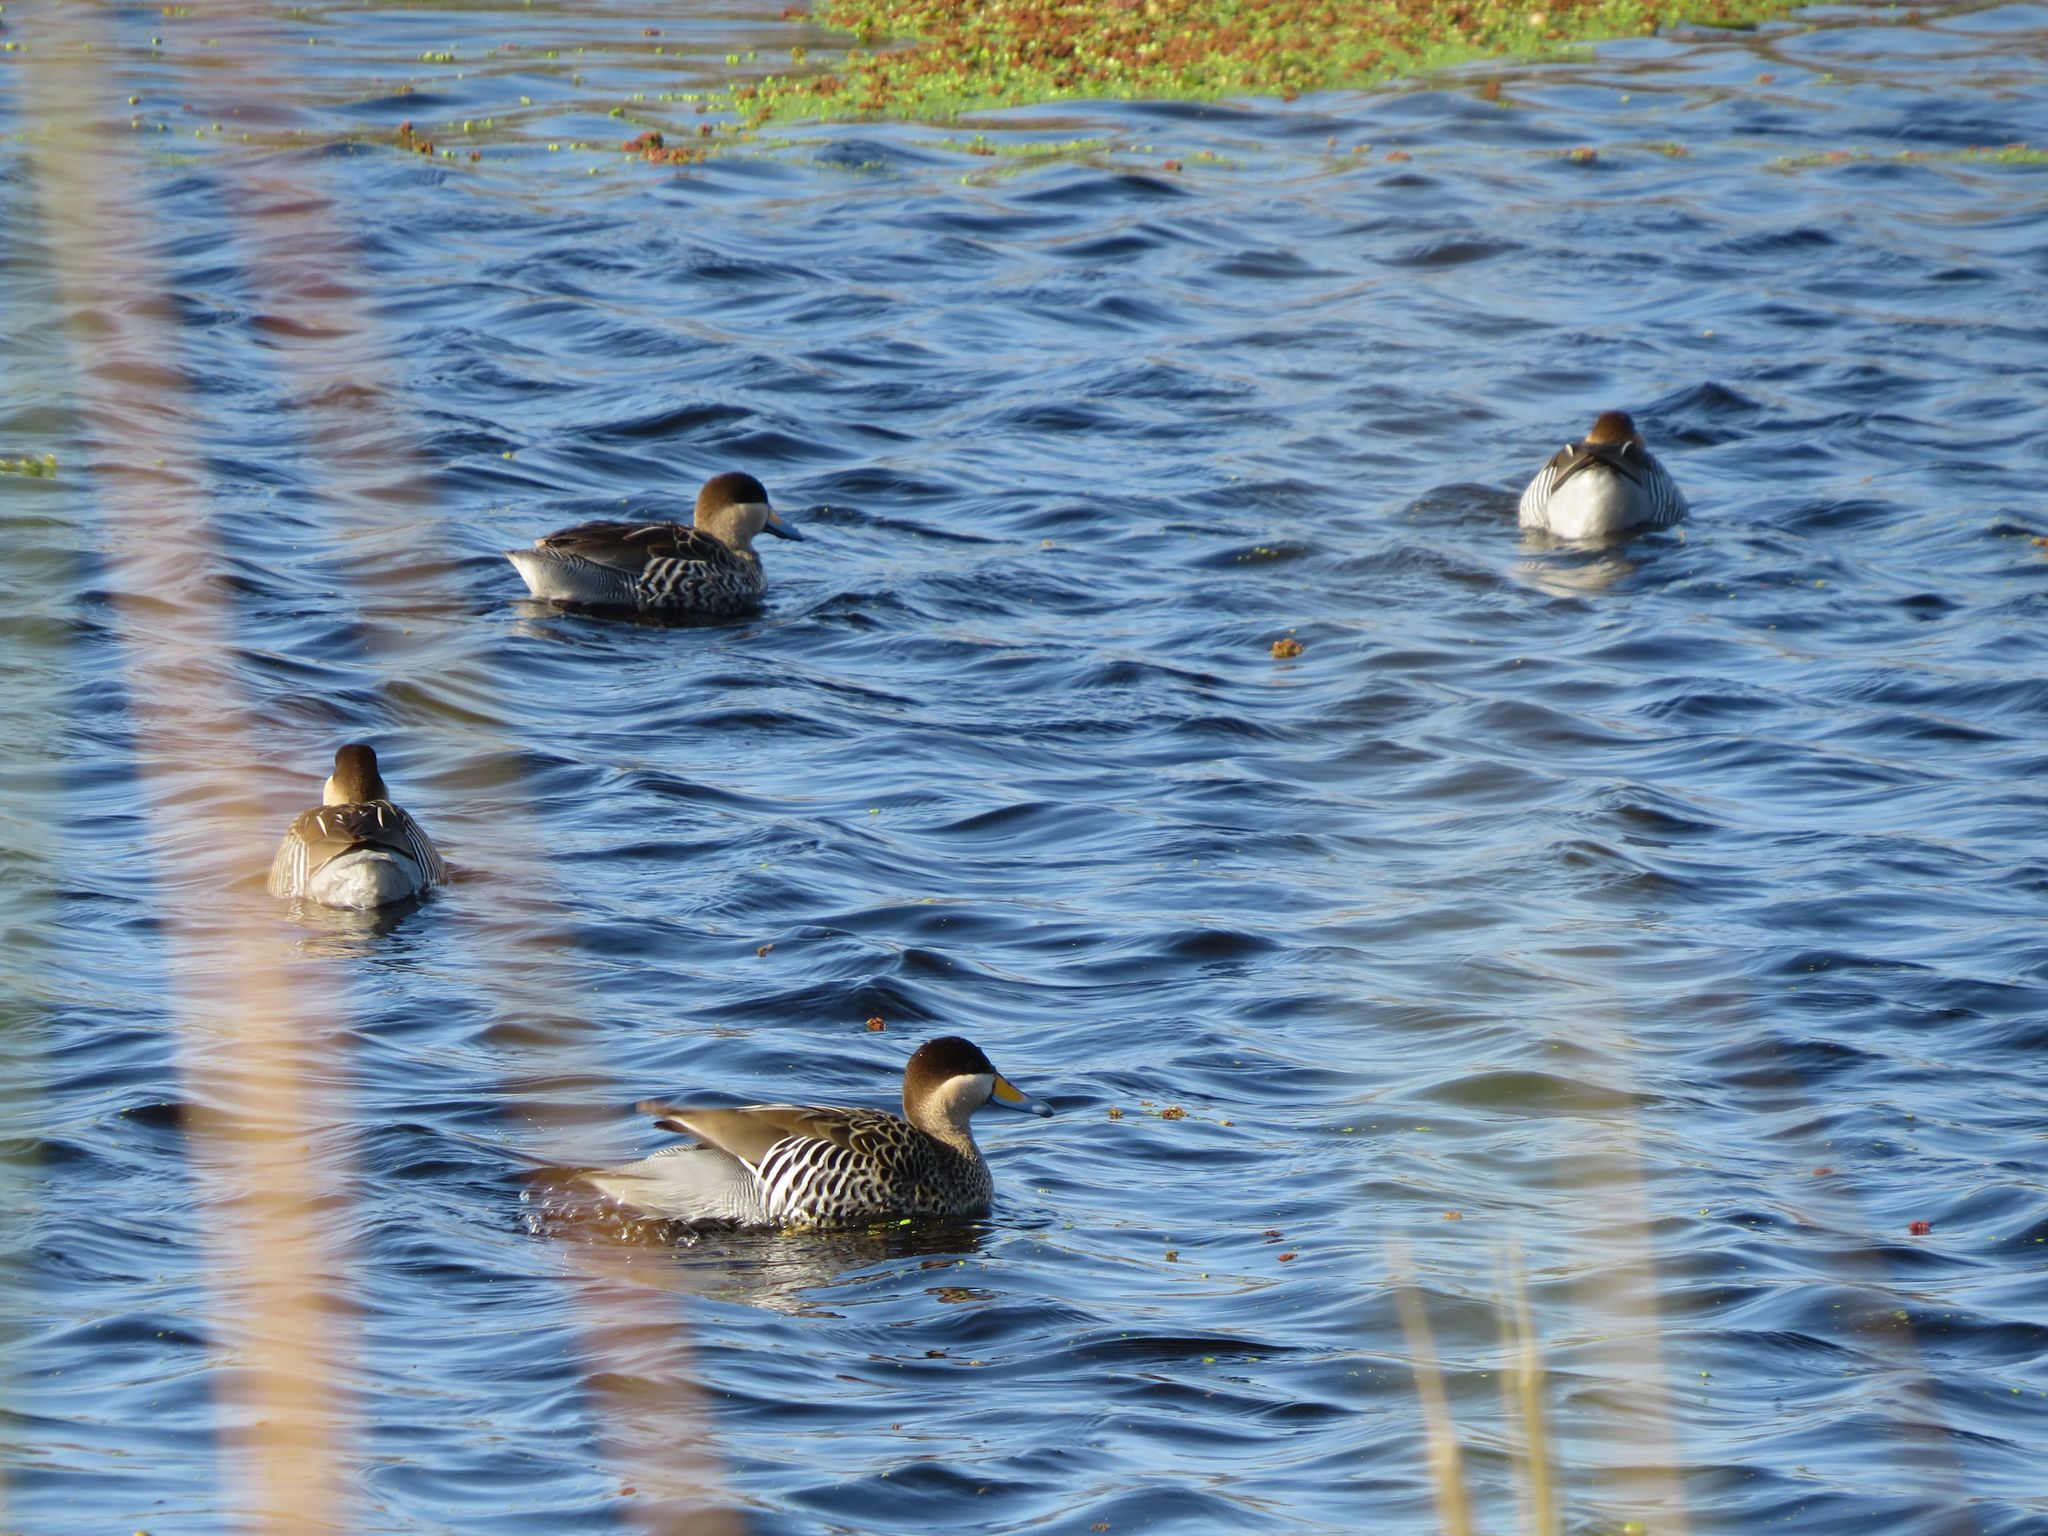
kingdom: Animalia
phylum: Chordata
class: Aves
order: Anseriformes
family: Anatidae
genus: Spatula
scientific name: Spatula versicolor
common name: Silver teal
